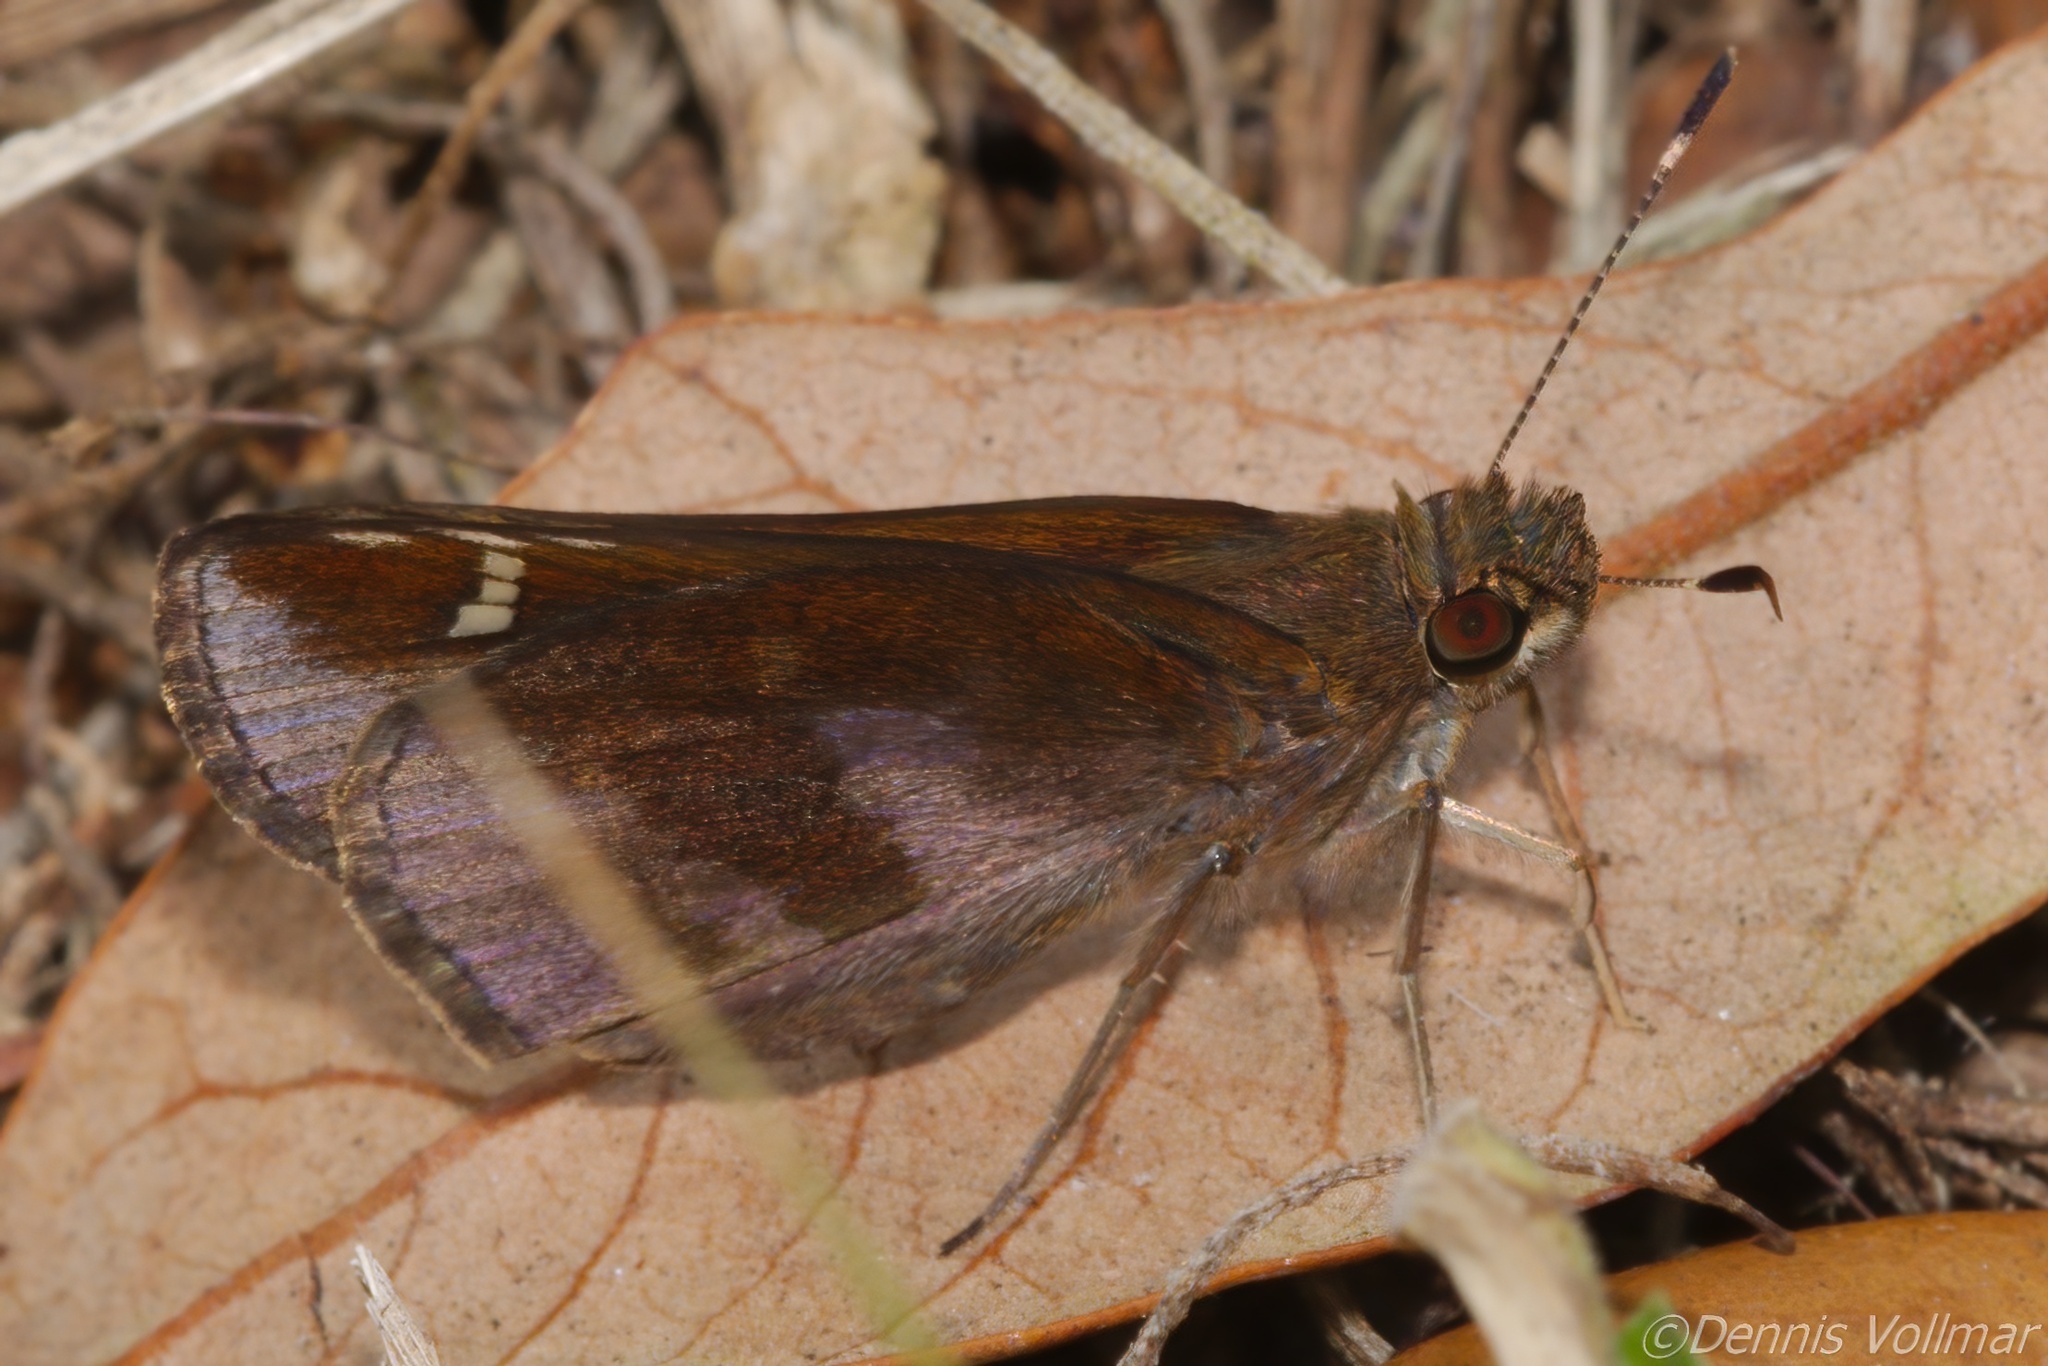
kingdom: Animalia
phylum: Arthropoda
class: Insecta
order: Lepidoptera
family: Hesperiidae
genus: Lerema
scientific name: Lerema accius
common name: Clouded skipper
